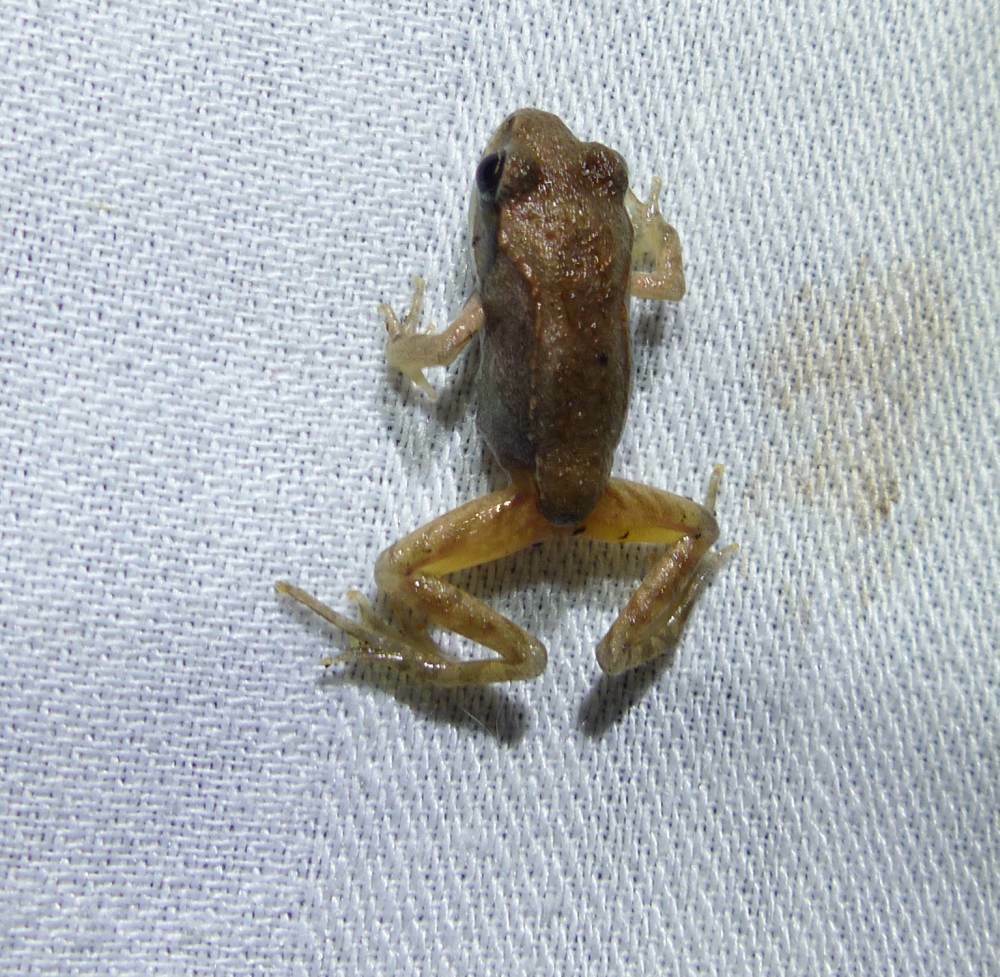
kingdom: Animalia
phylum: Chordata
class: Amphibia
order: Anura
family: Ranidae
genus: Lithobates
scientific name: Lithobates sylvaticus
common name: Wood frog
